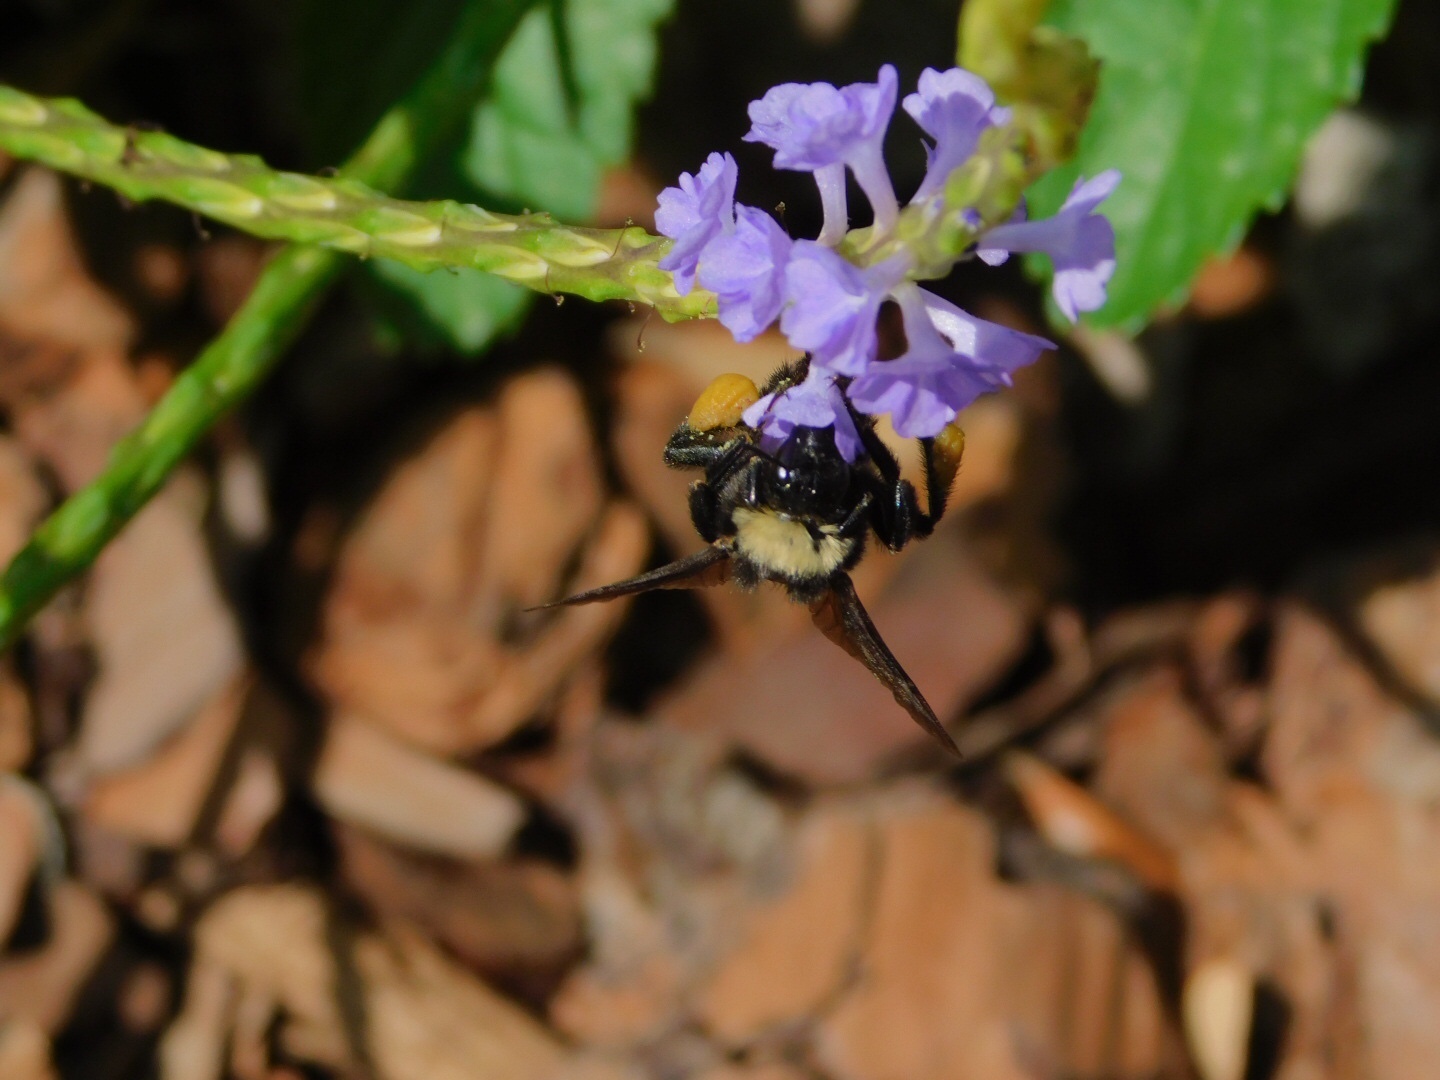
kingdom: Animalia
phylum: Arthropoda
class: Insecta
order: Hymenoptera
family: Apidae
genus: Bombus
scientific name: Bombus pensylvanicus
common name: Bumble bee
